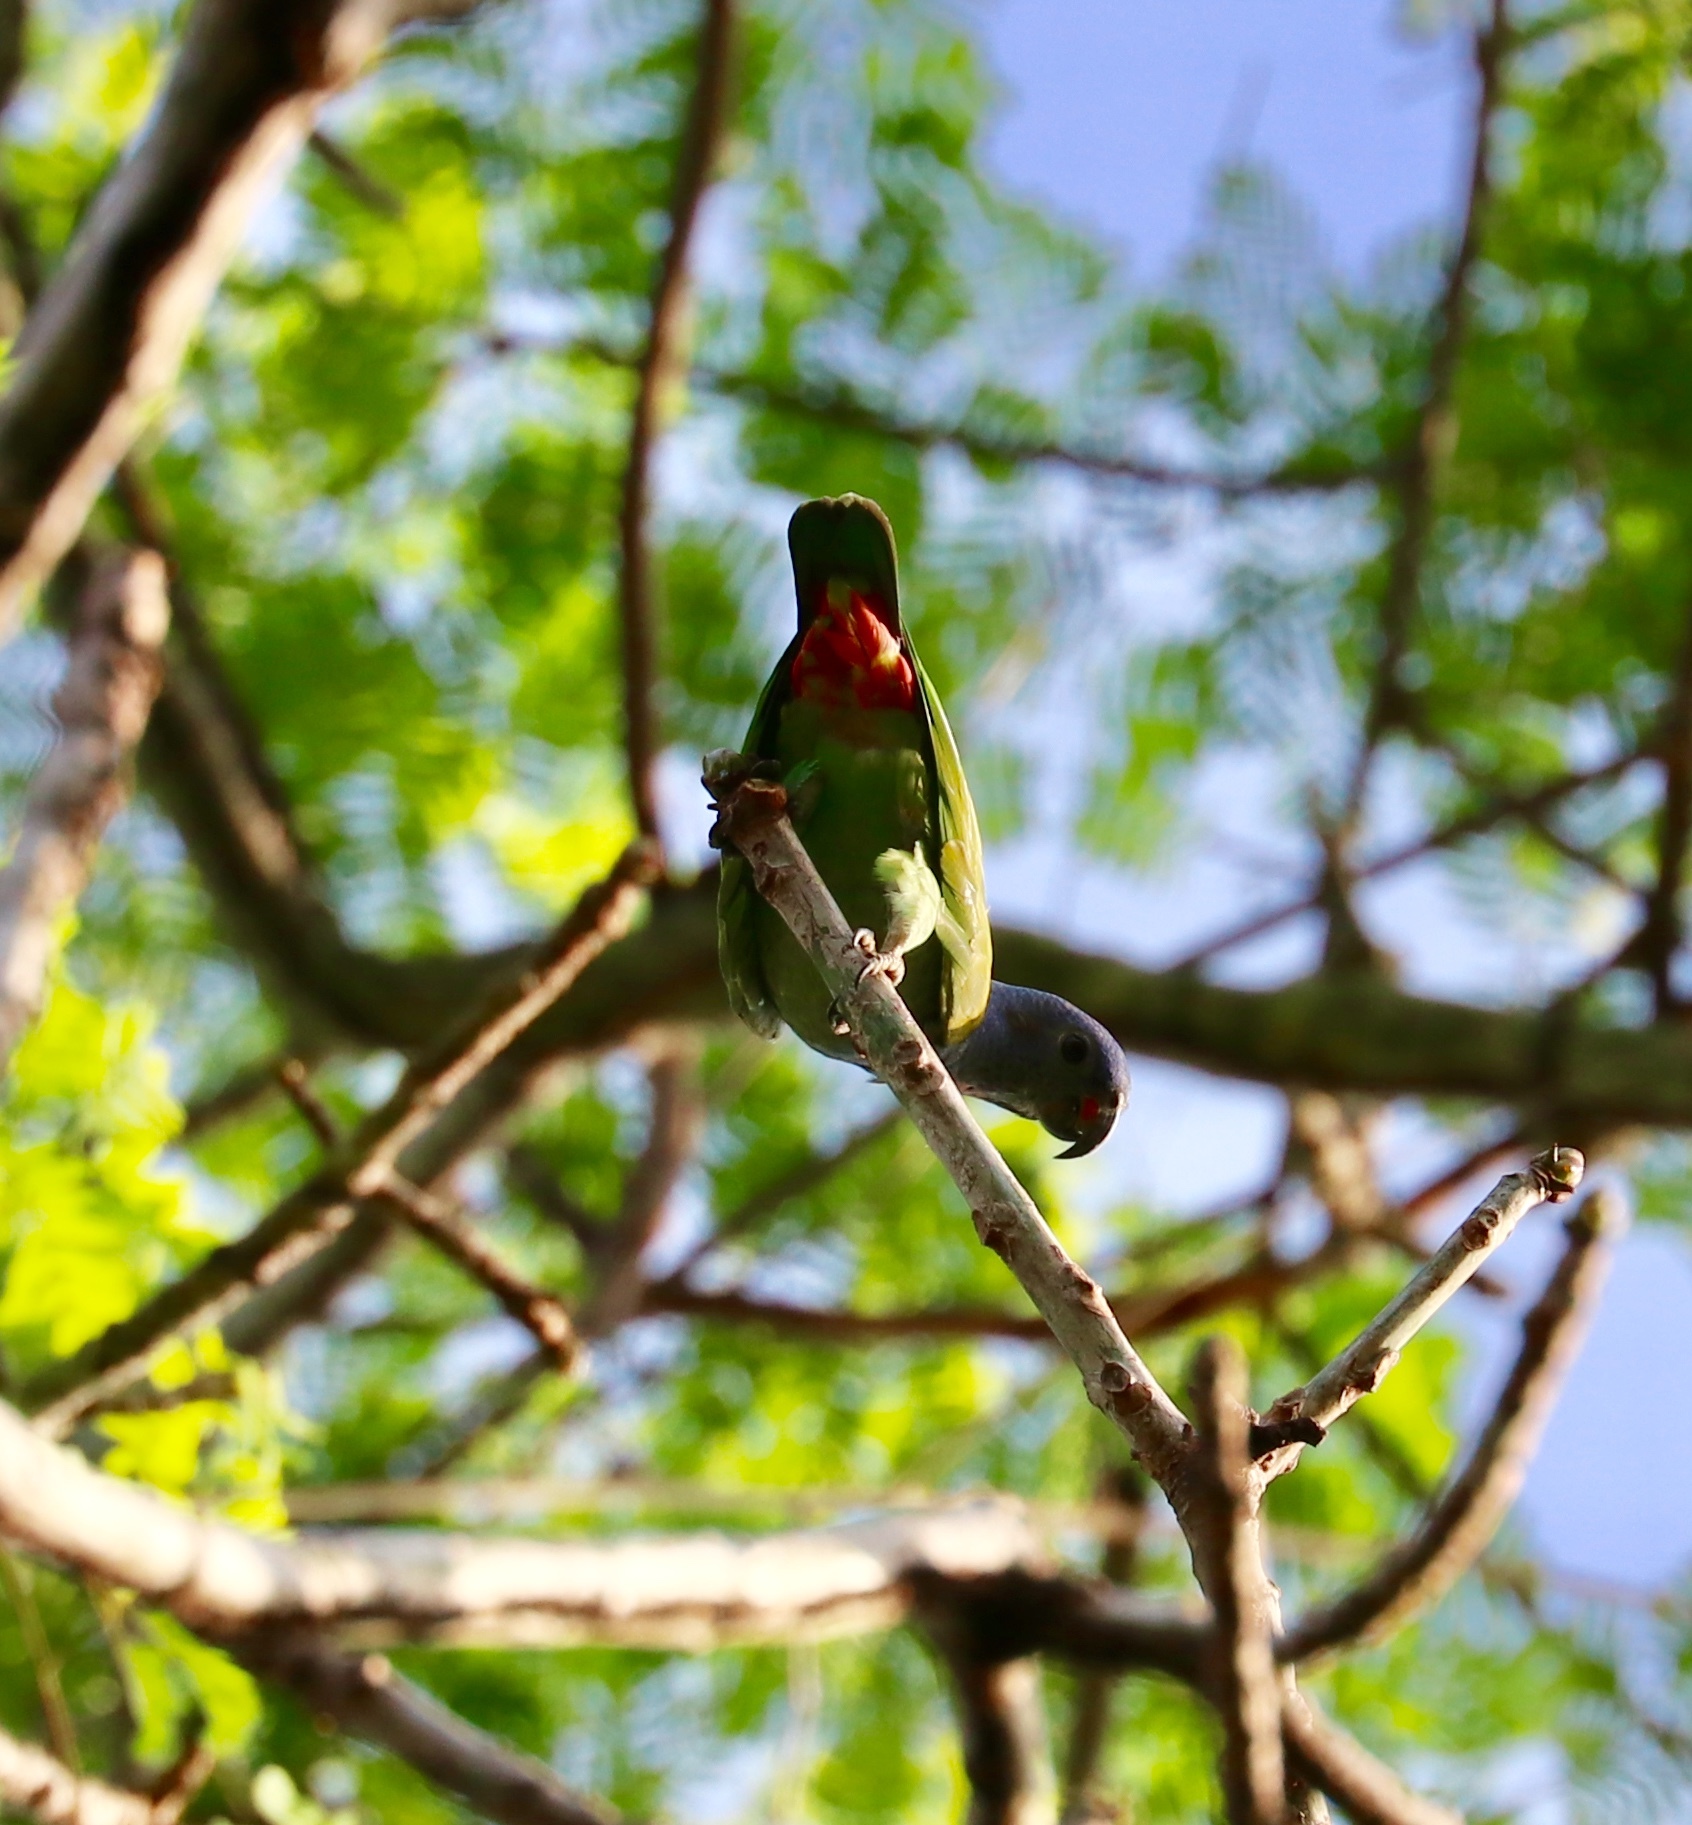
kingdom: Animalia
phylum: Chordata
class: Aves
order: Psittaciformes
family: Psittacidae
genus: Pionus
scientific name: Pionus menstruus
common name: Blue-headed parrot
